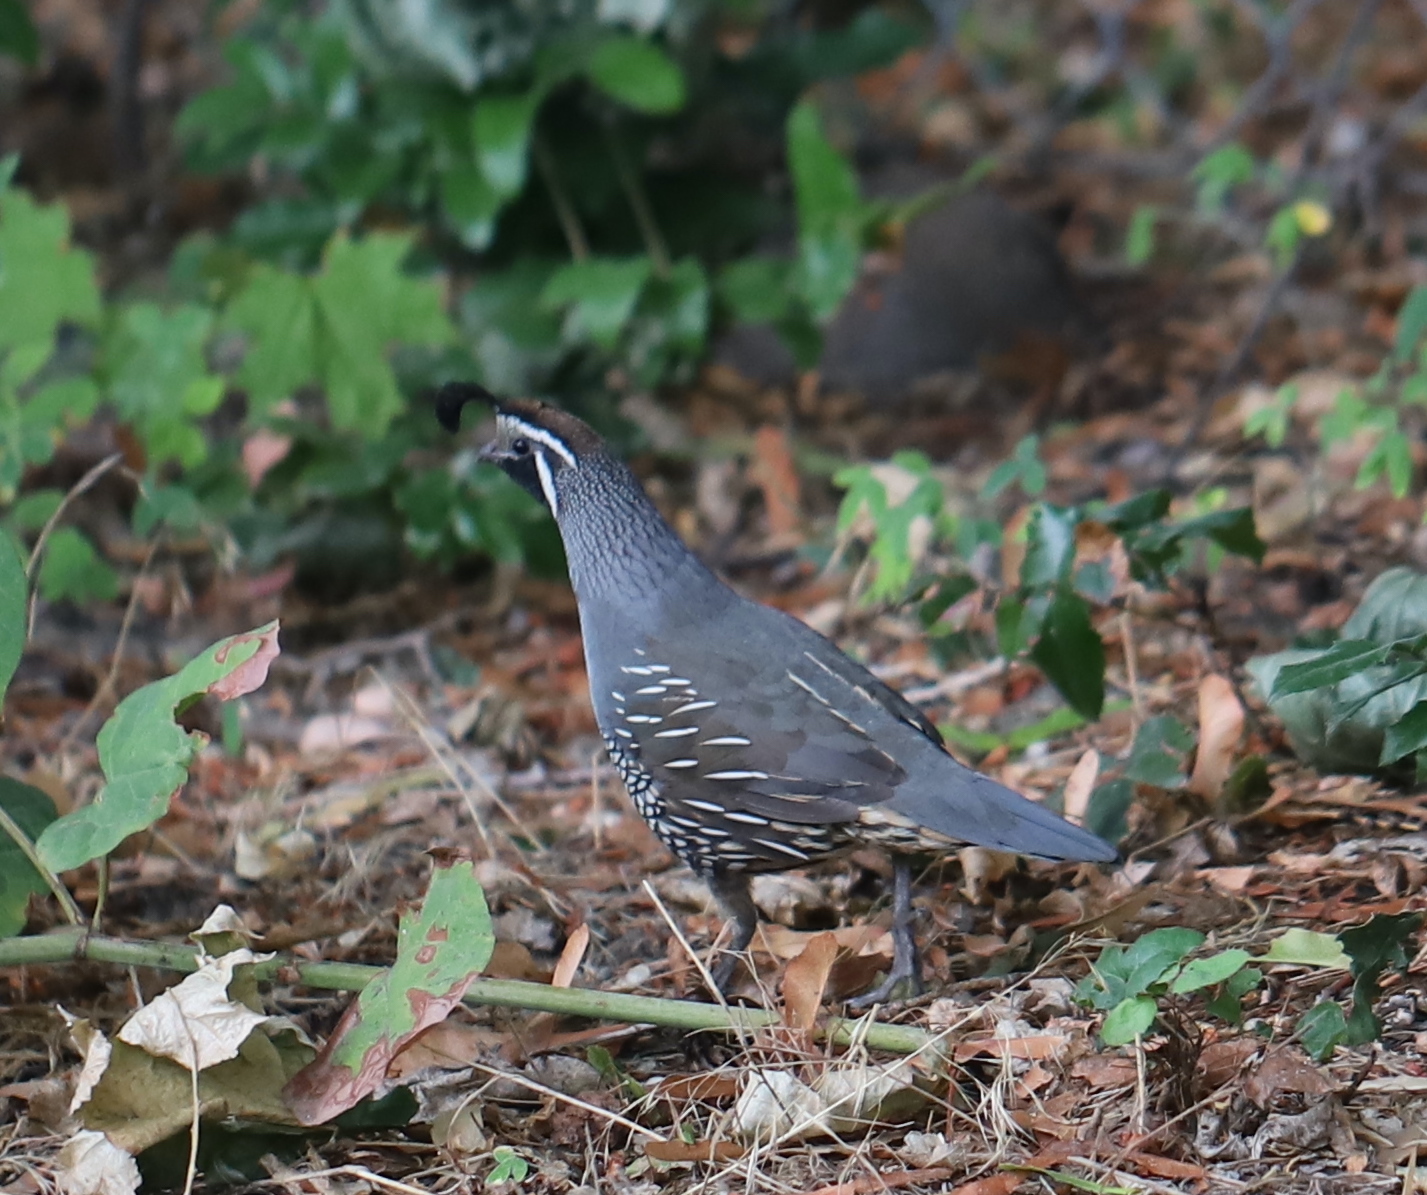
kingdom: Animalia
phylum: Chordata
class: Aves
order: Galliformes
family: Odontophoridae
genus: Callipepla
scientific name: Callipepla californica
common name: California quail
